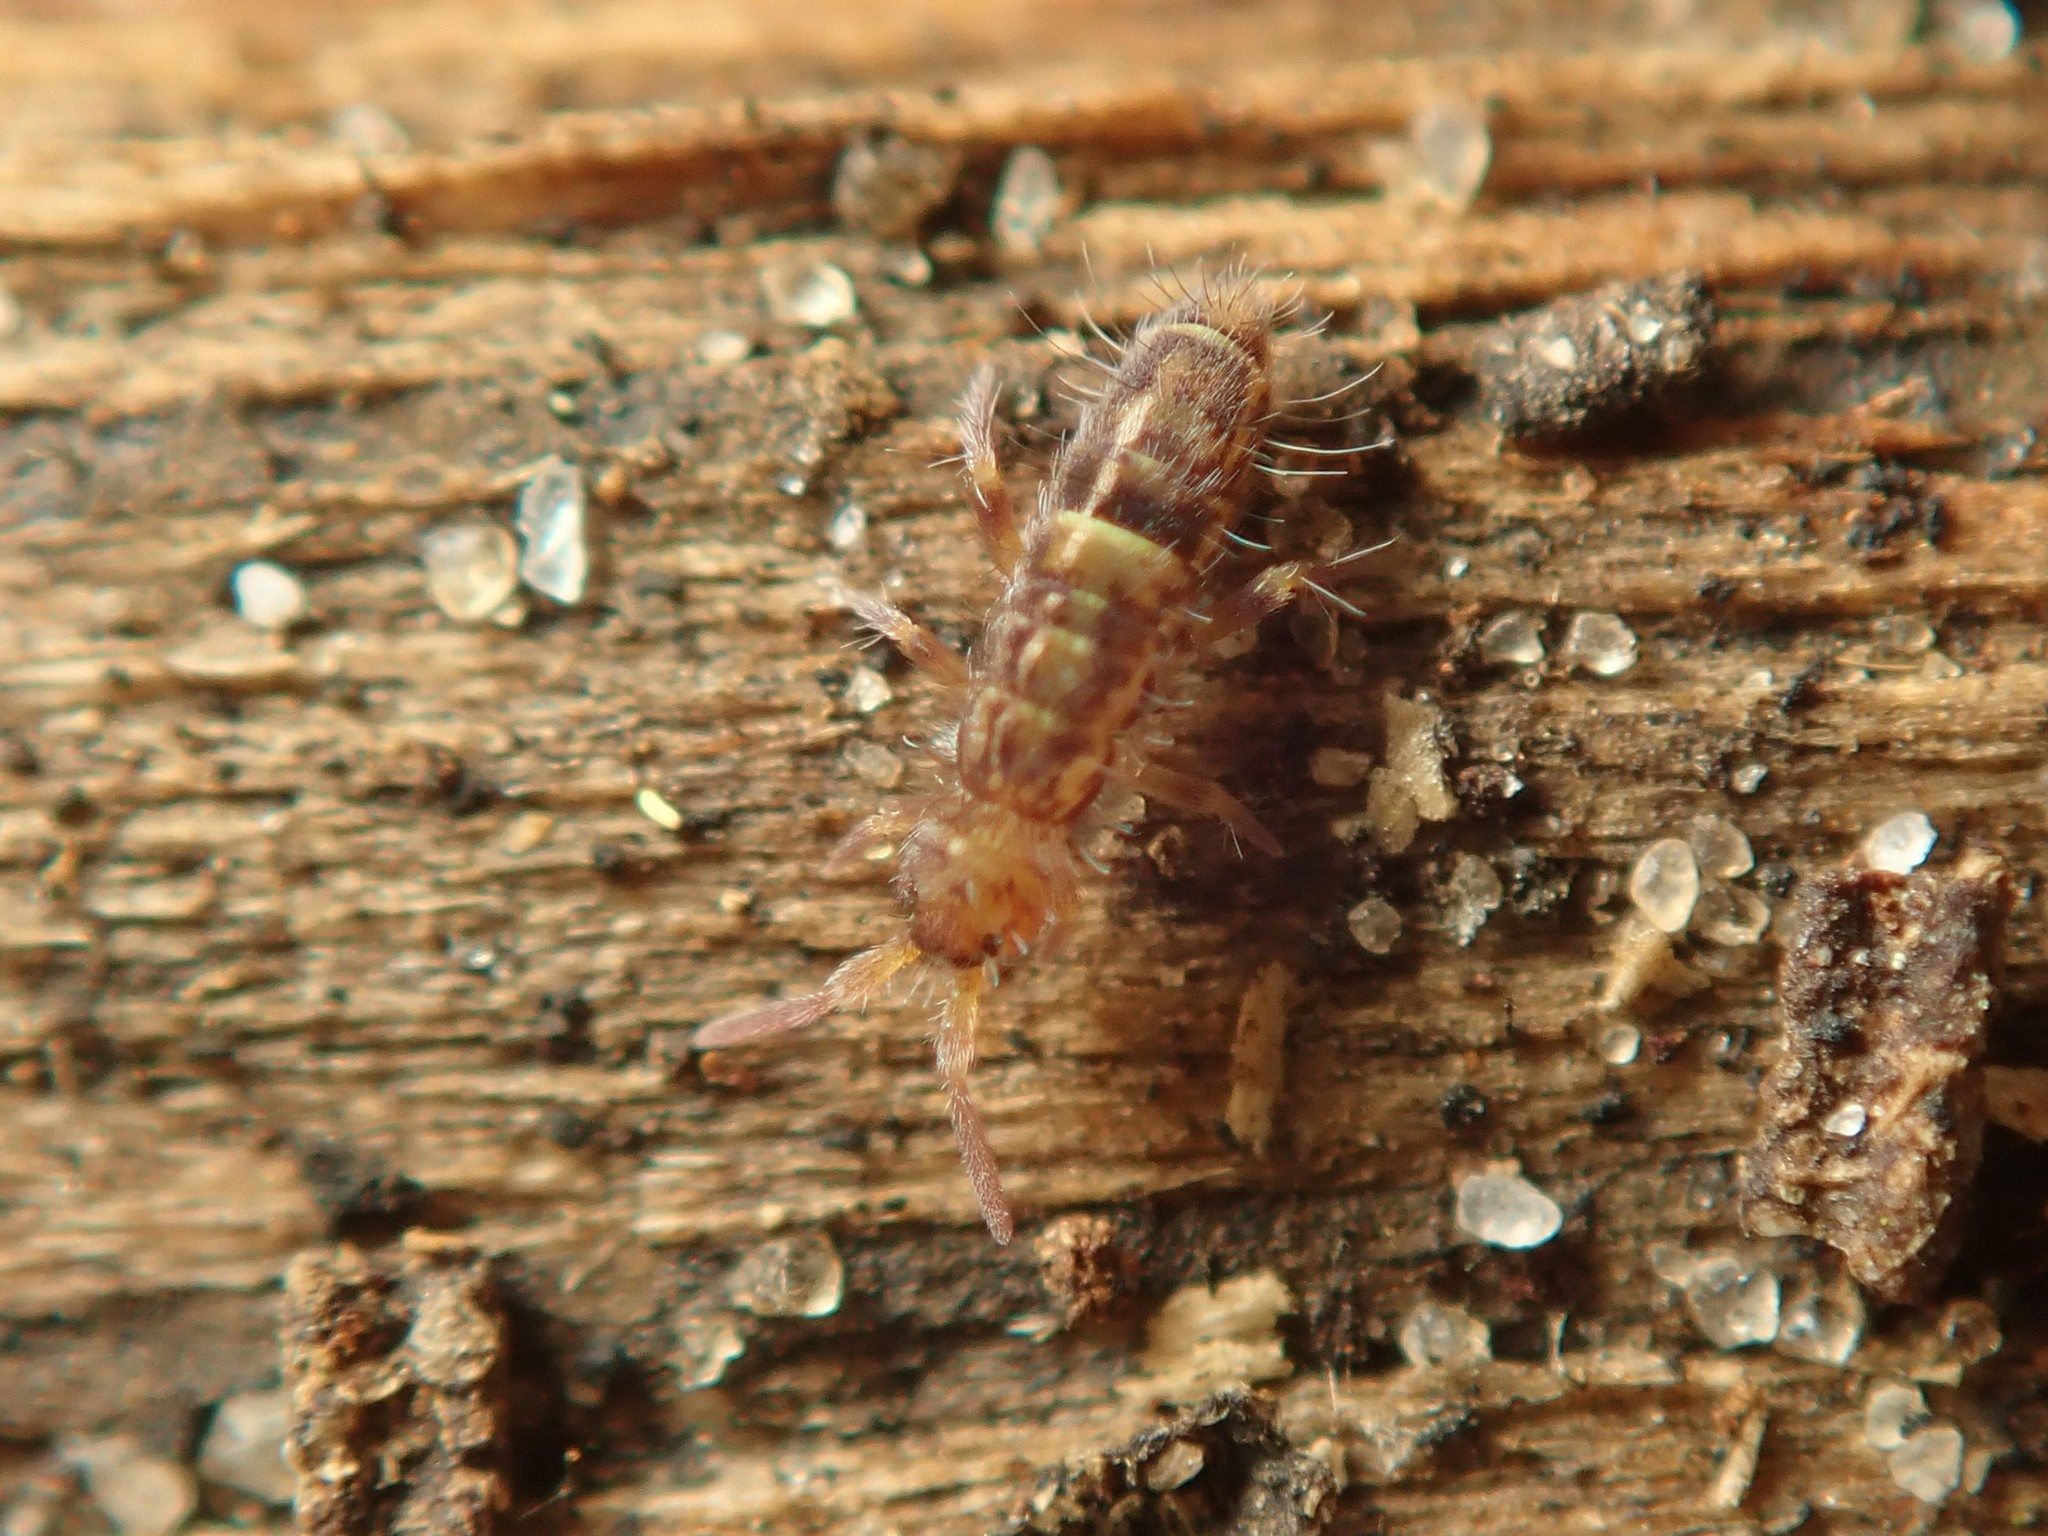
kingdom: Animalia
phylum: Arthropoda
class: Collembola
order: Entomobryomorpha
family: Orchesellidae
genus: Orchesella
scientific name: Orchesella cincta
